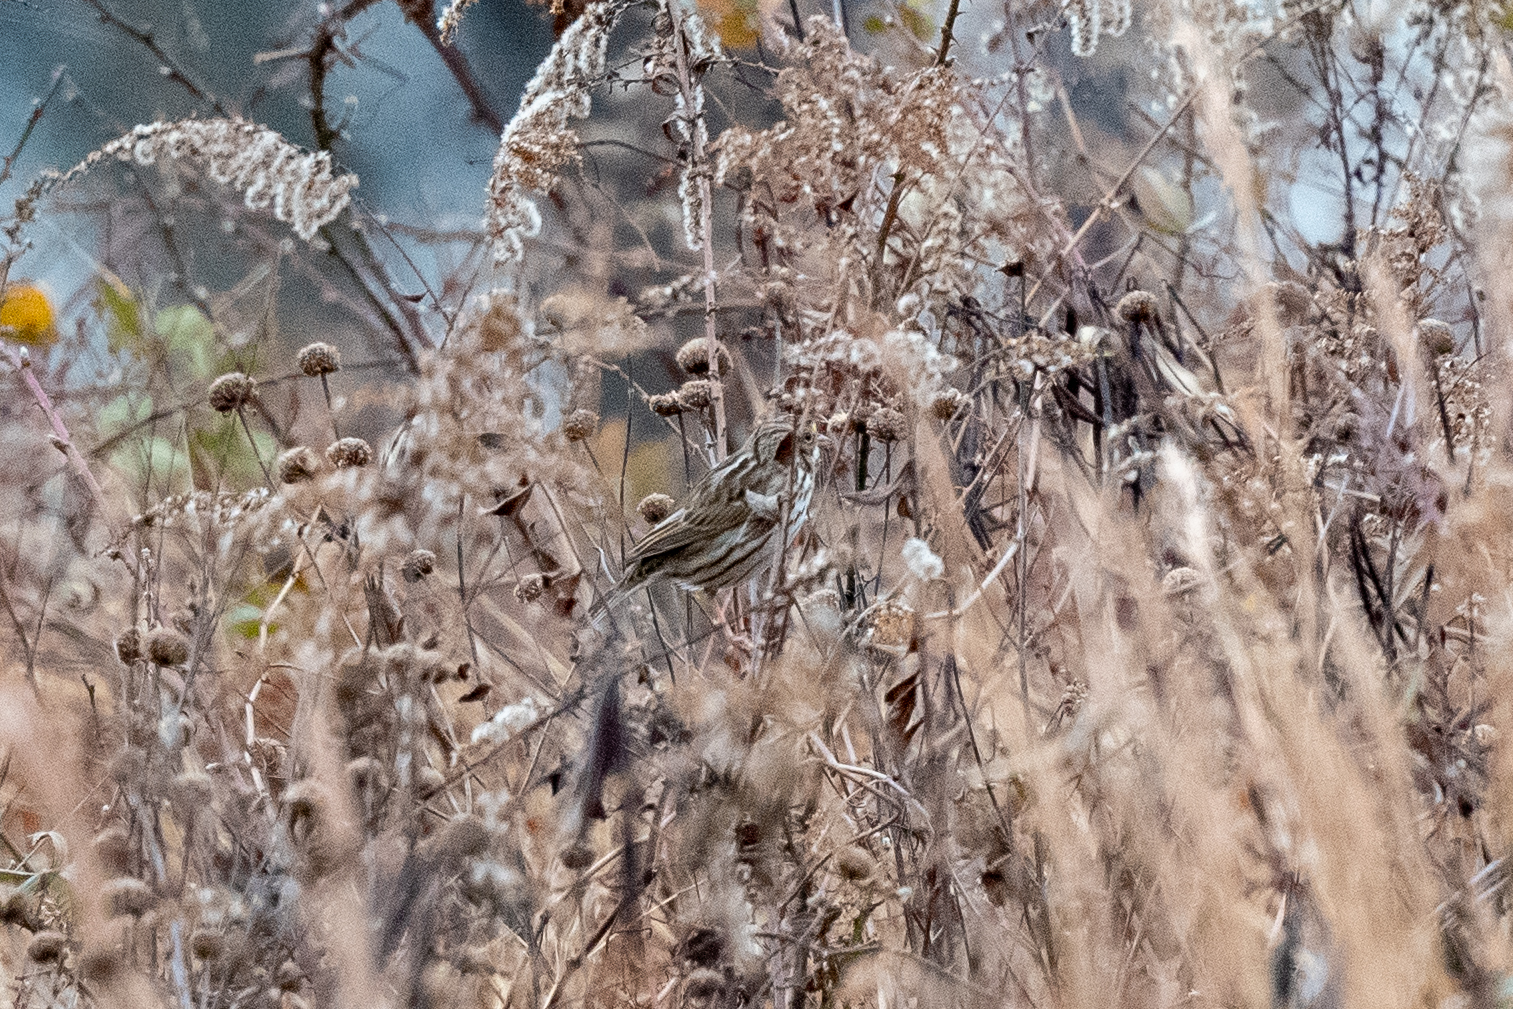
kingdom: Animalia
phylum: Chordata
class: Aves
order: Passeriformes
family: Passerellidae
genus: Passerculus
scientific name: Passerculus sandwichensis
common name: Savannah sparrow
